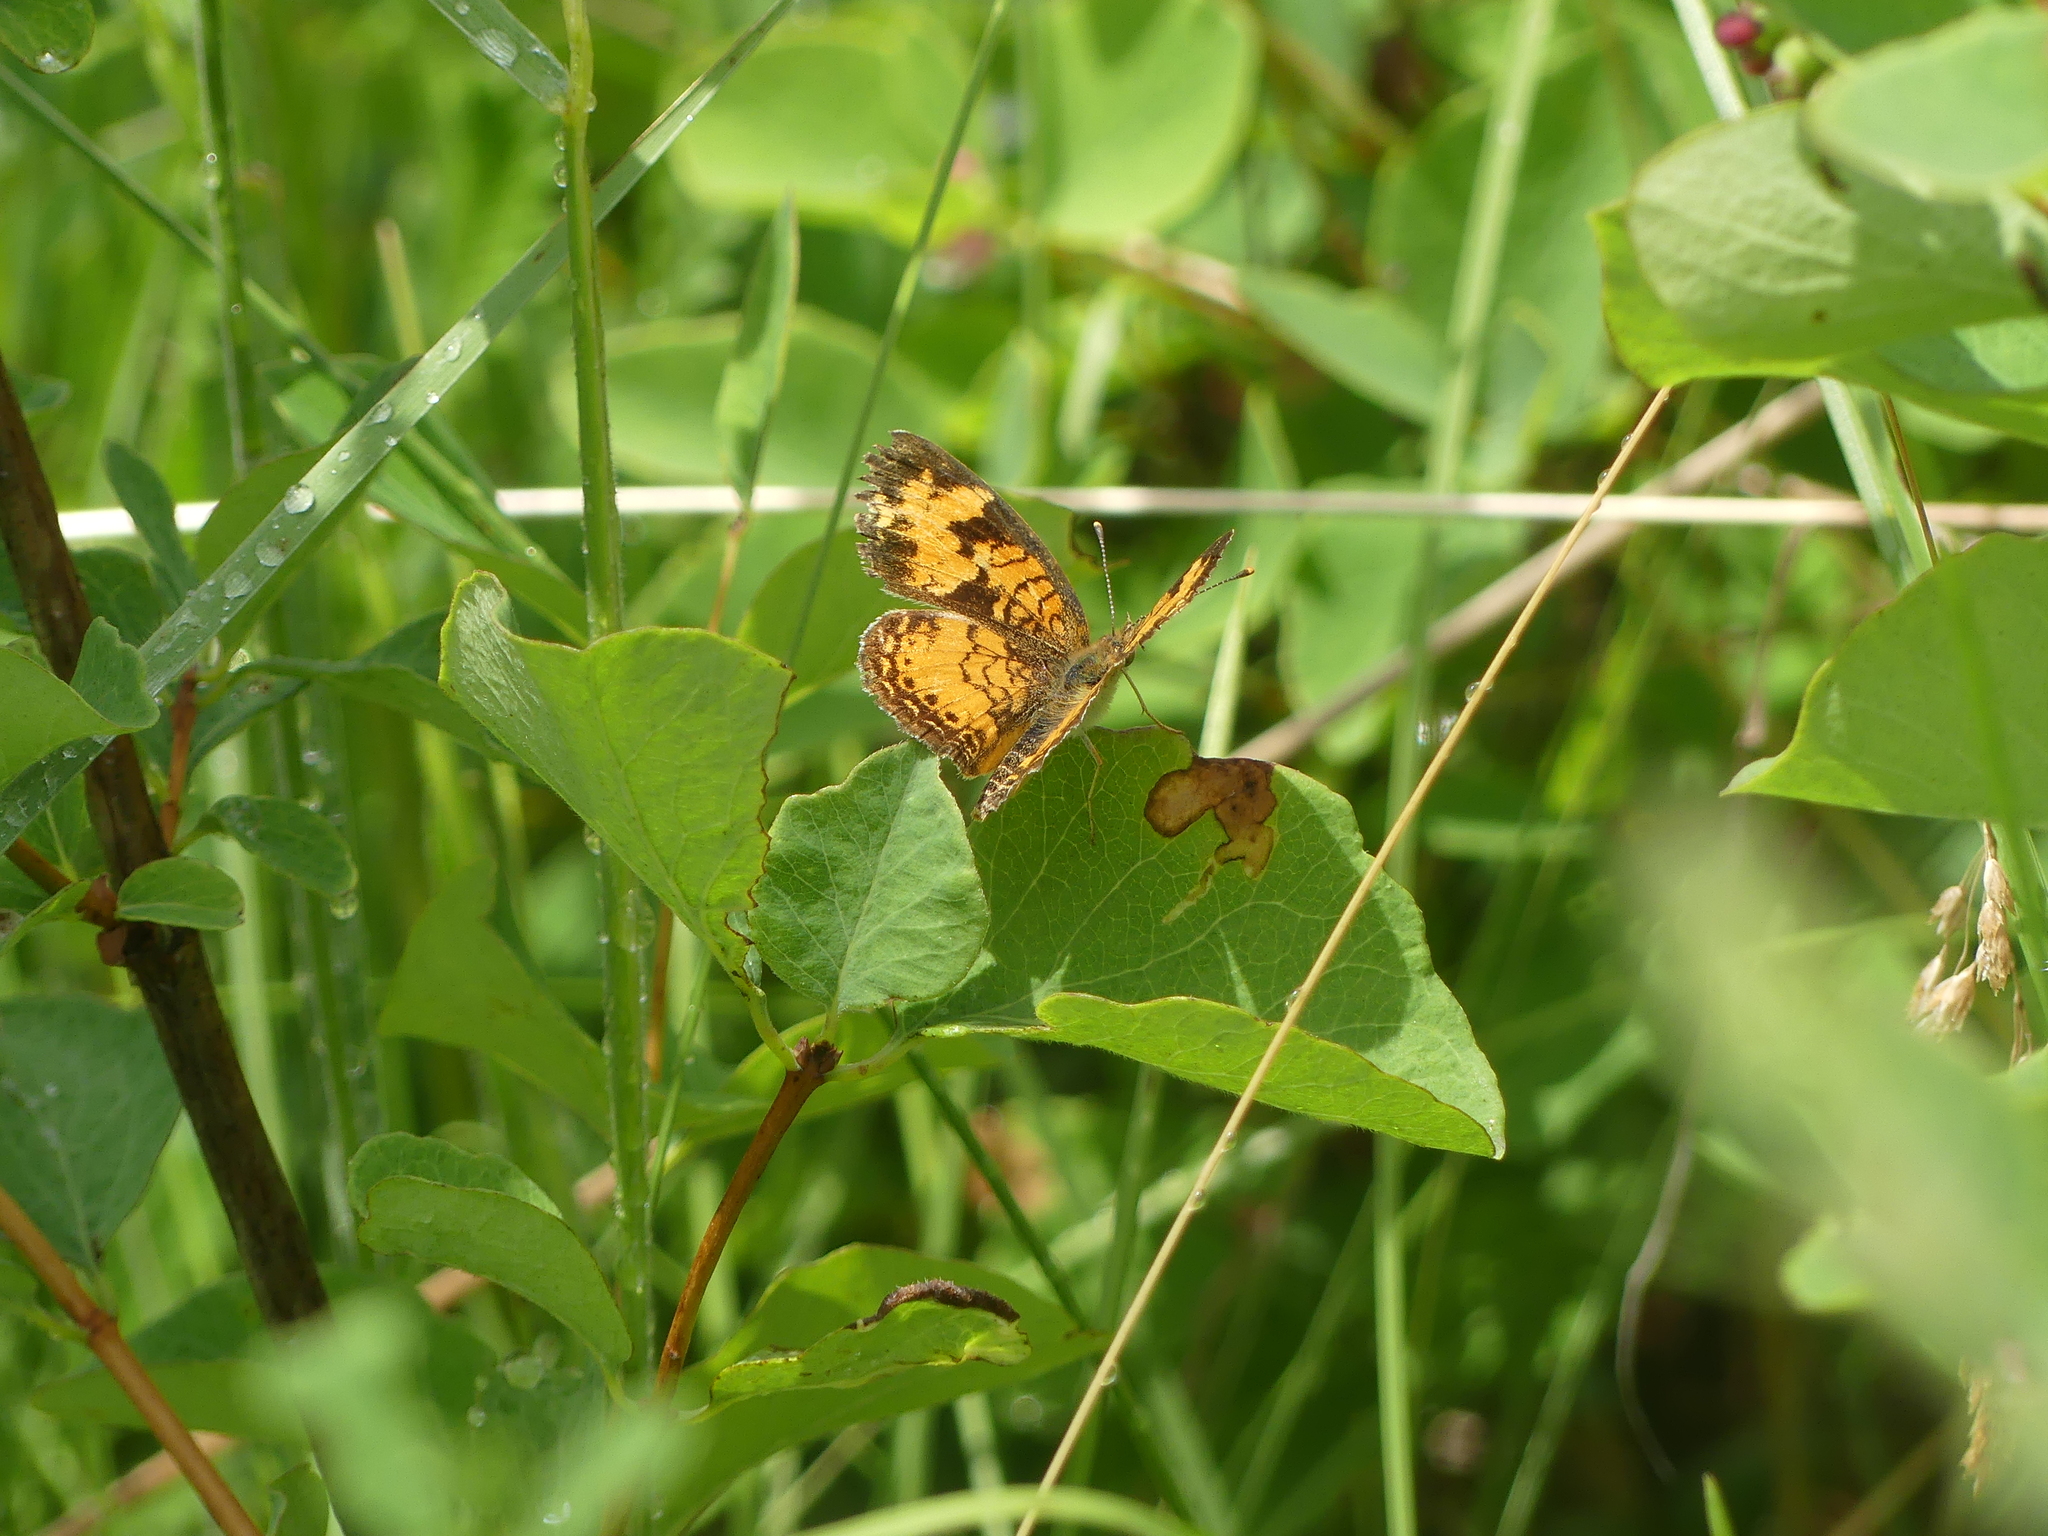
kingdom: Animalia
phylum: Arthropoda
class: Insecta
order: Lepidoptera
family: Nymphalidae
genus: Phyciodes
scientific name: Phyciodes tharos
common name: Pearl crescent
